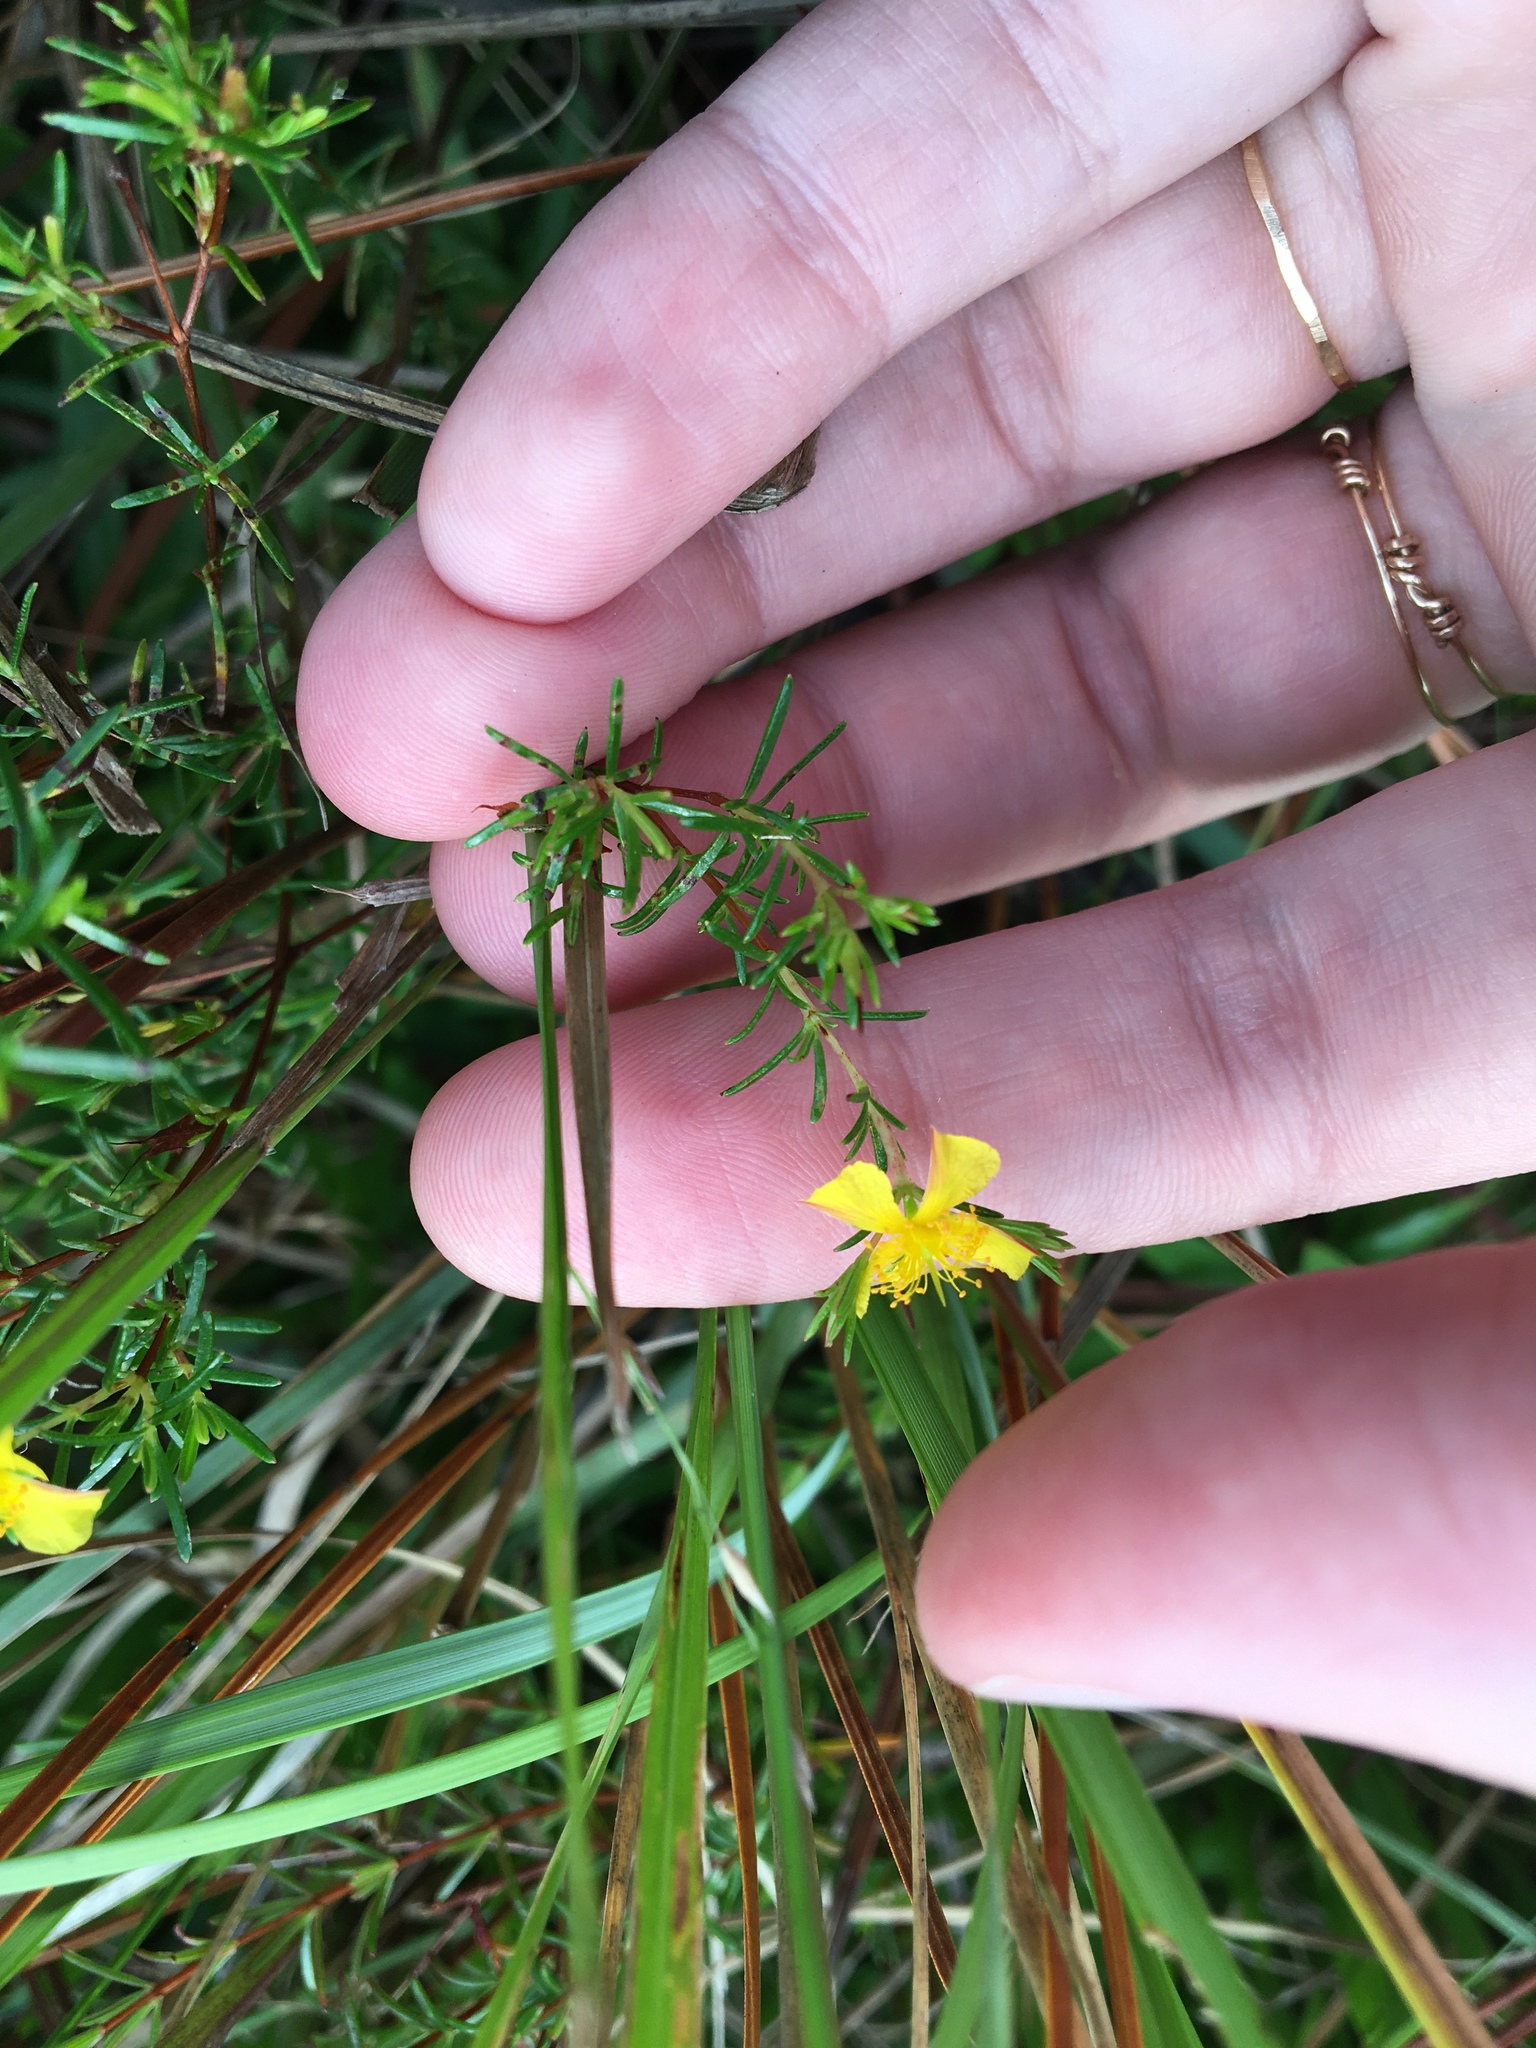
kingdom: Plantae
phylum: Tracheophyta
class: Magnoliopsida
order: Malpighiales
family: Hypericaceae
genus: Hypericum
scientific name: Hypericum brachyphyllum
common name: Coastal plain st. john's-wort
